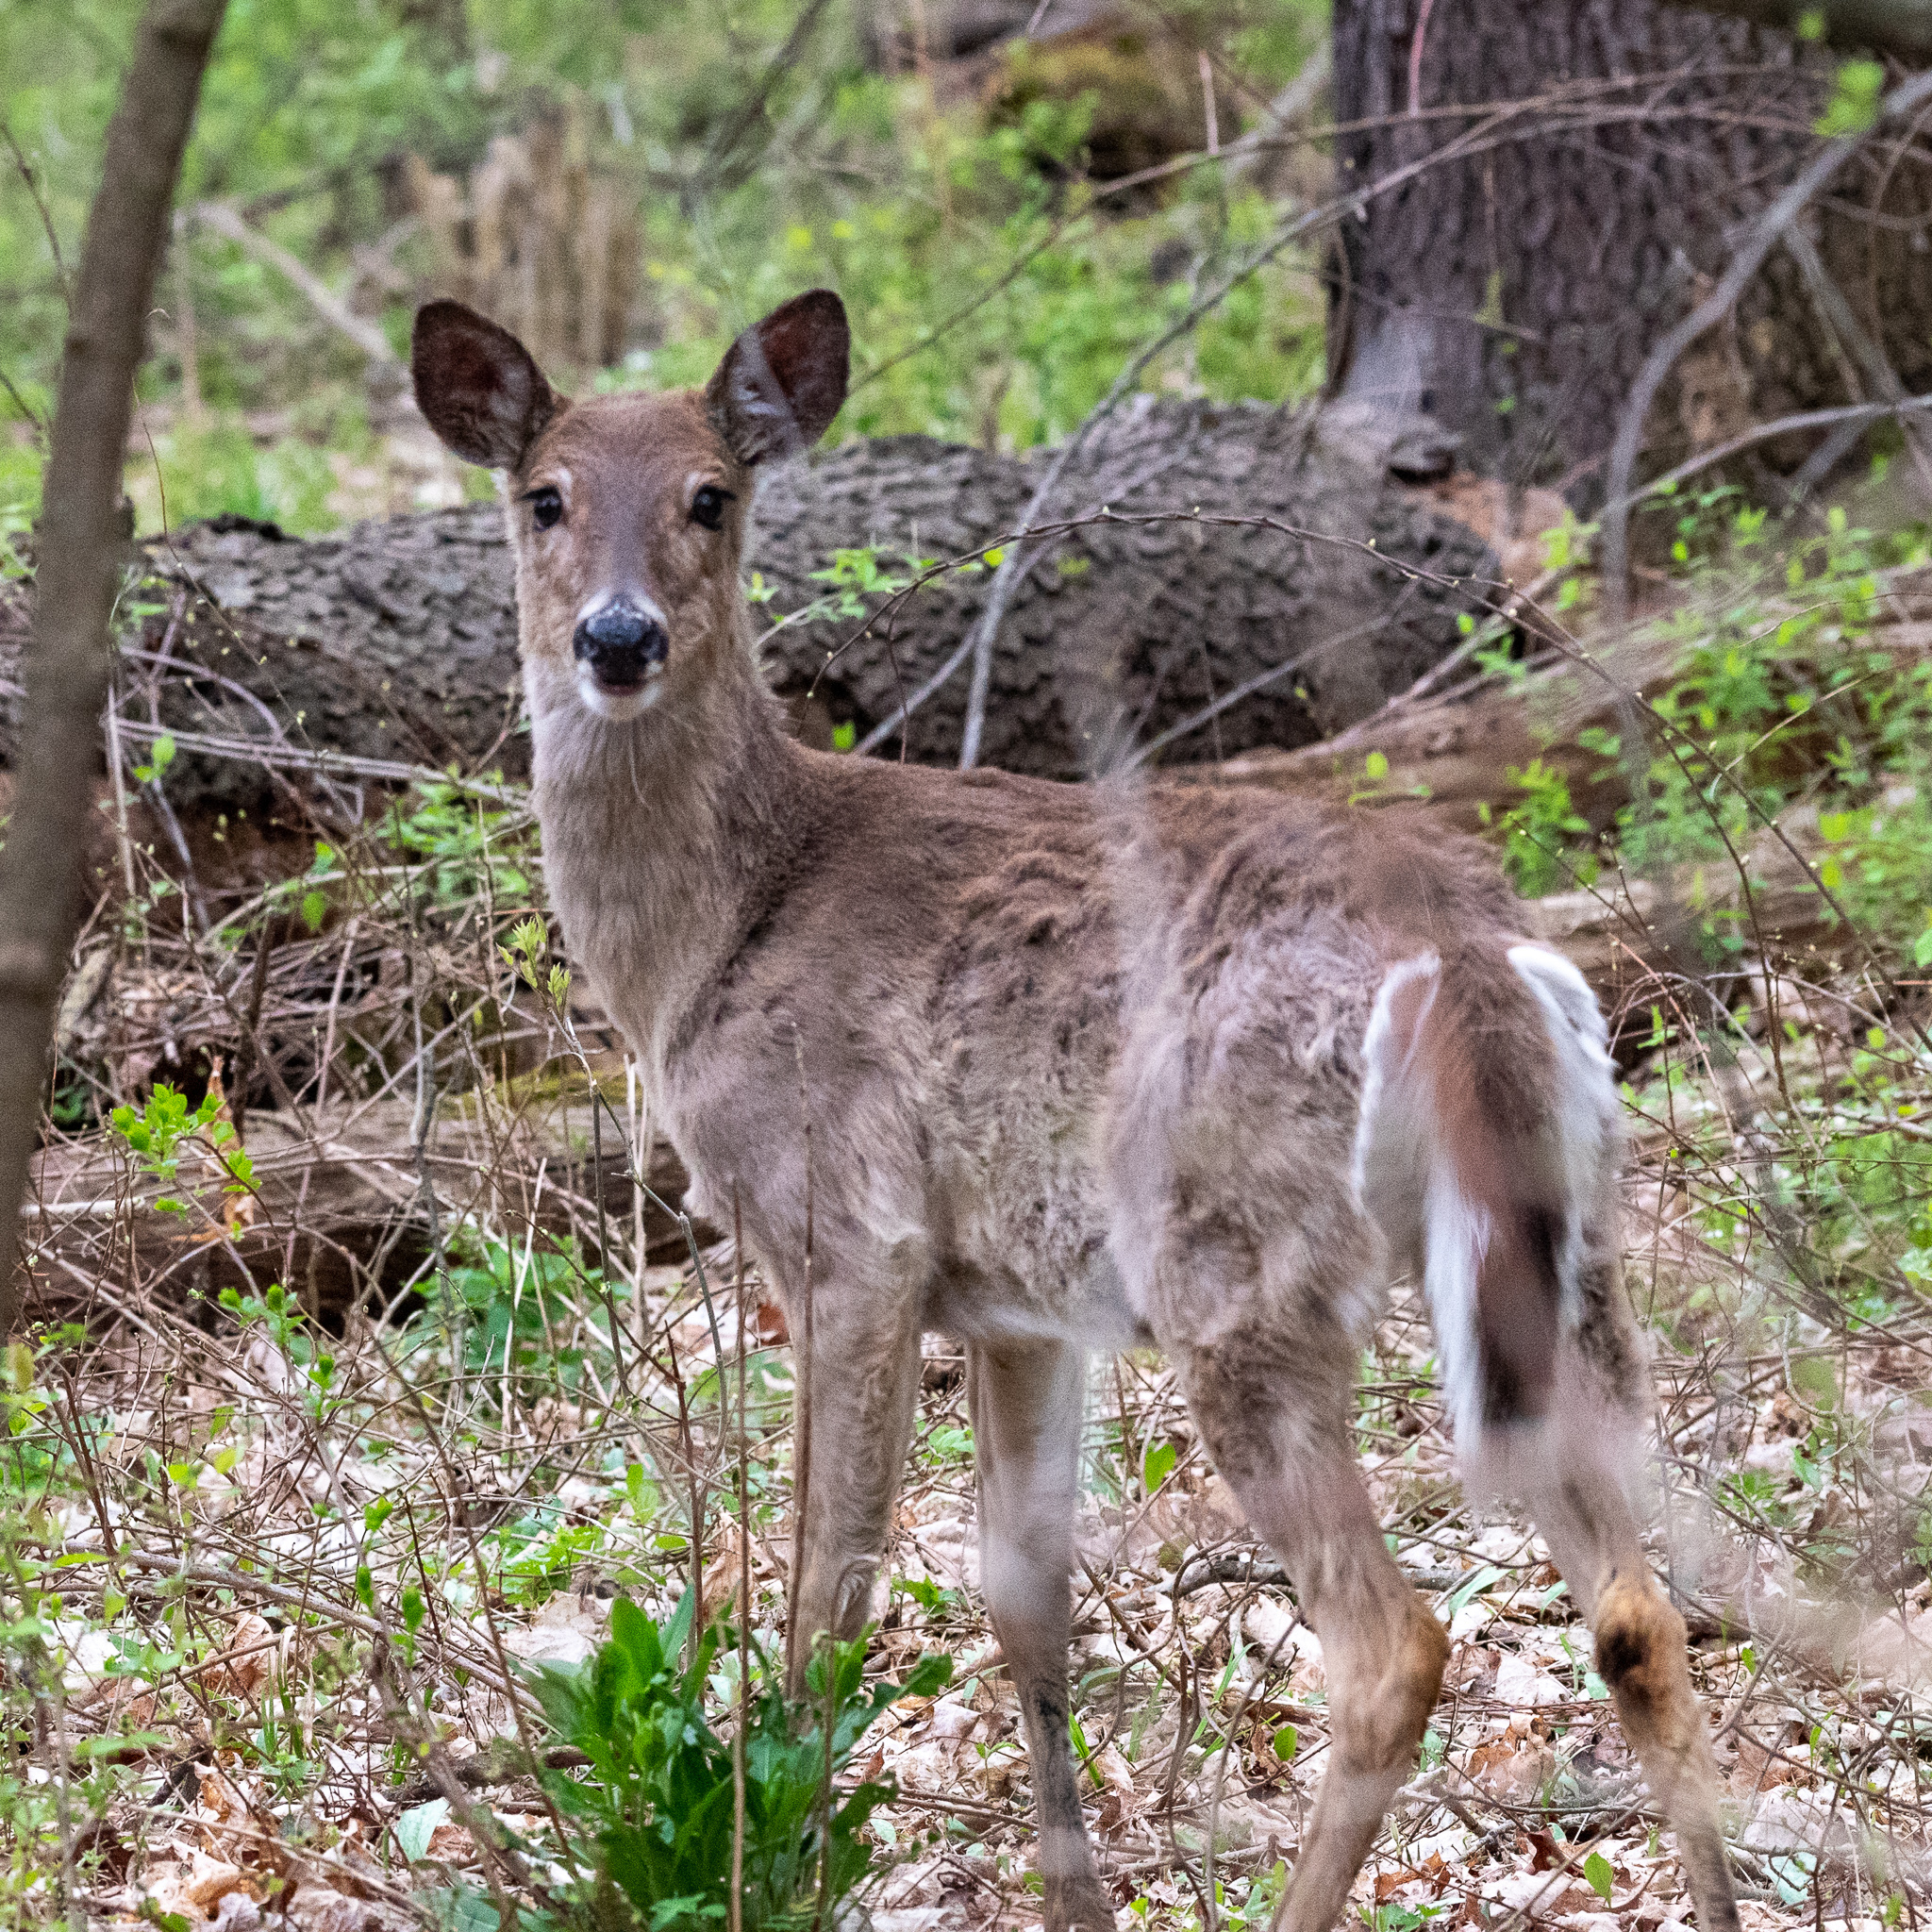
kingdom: Animalia
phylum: Chordata
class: Mammalia
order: Artiodactyla
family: Cervidae
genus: Odocoileus
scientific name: Odocoileus virginianus
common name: White-tailed deer
